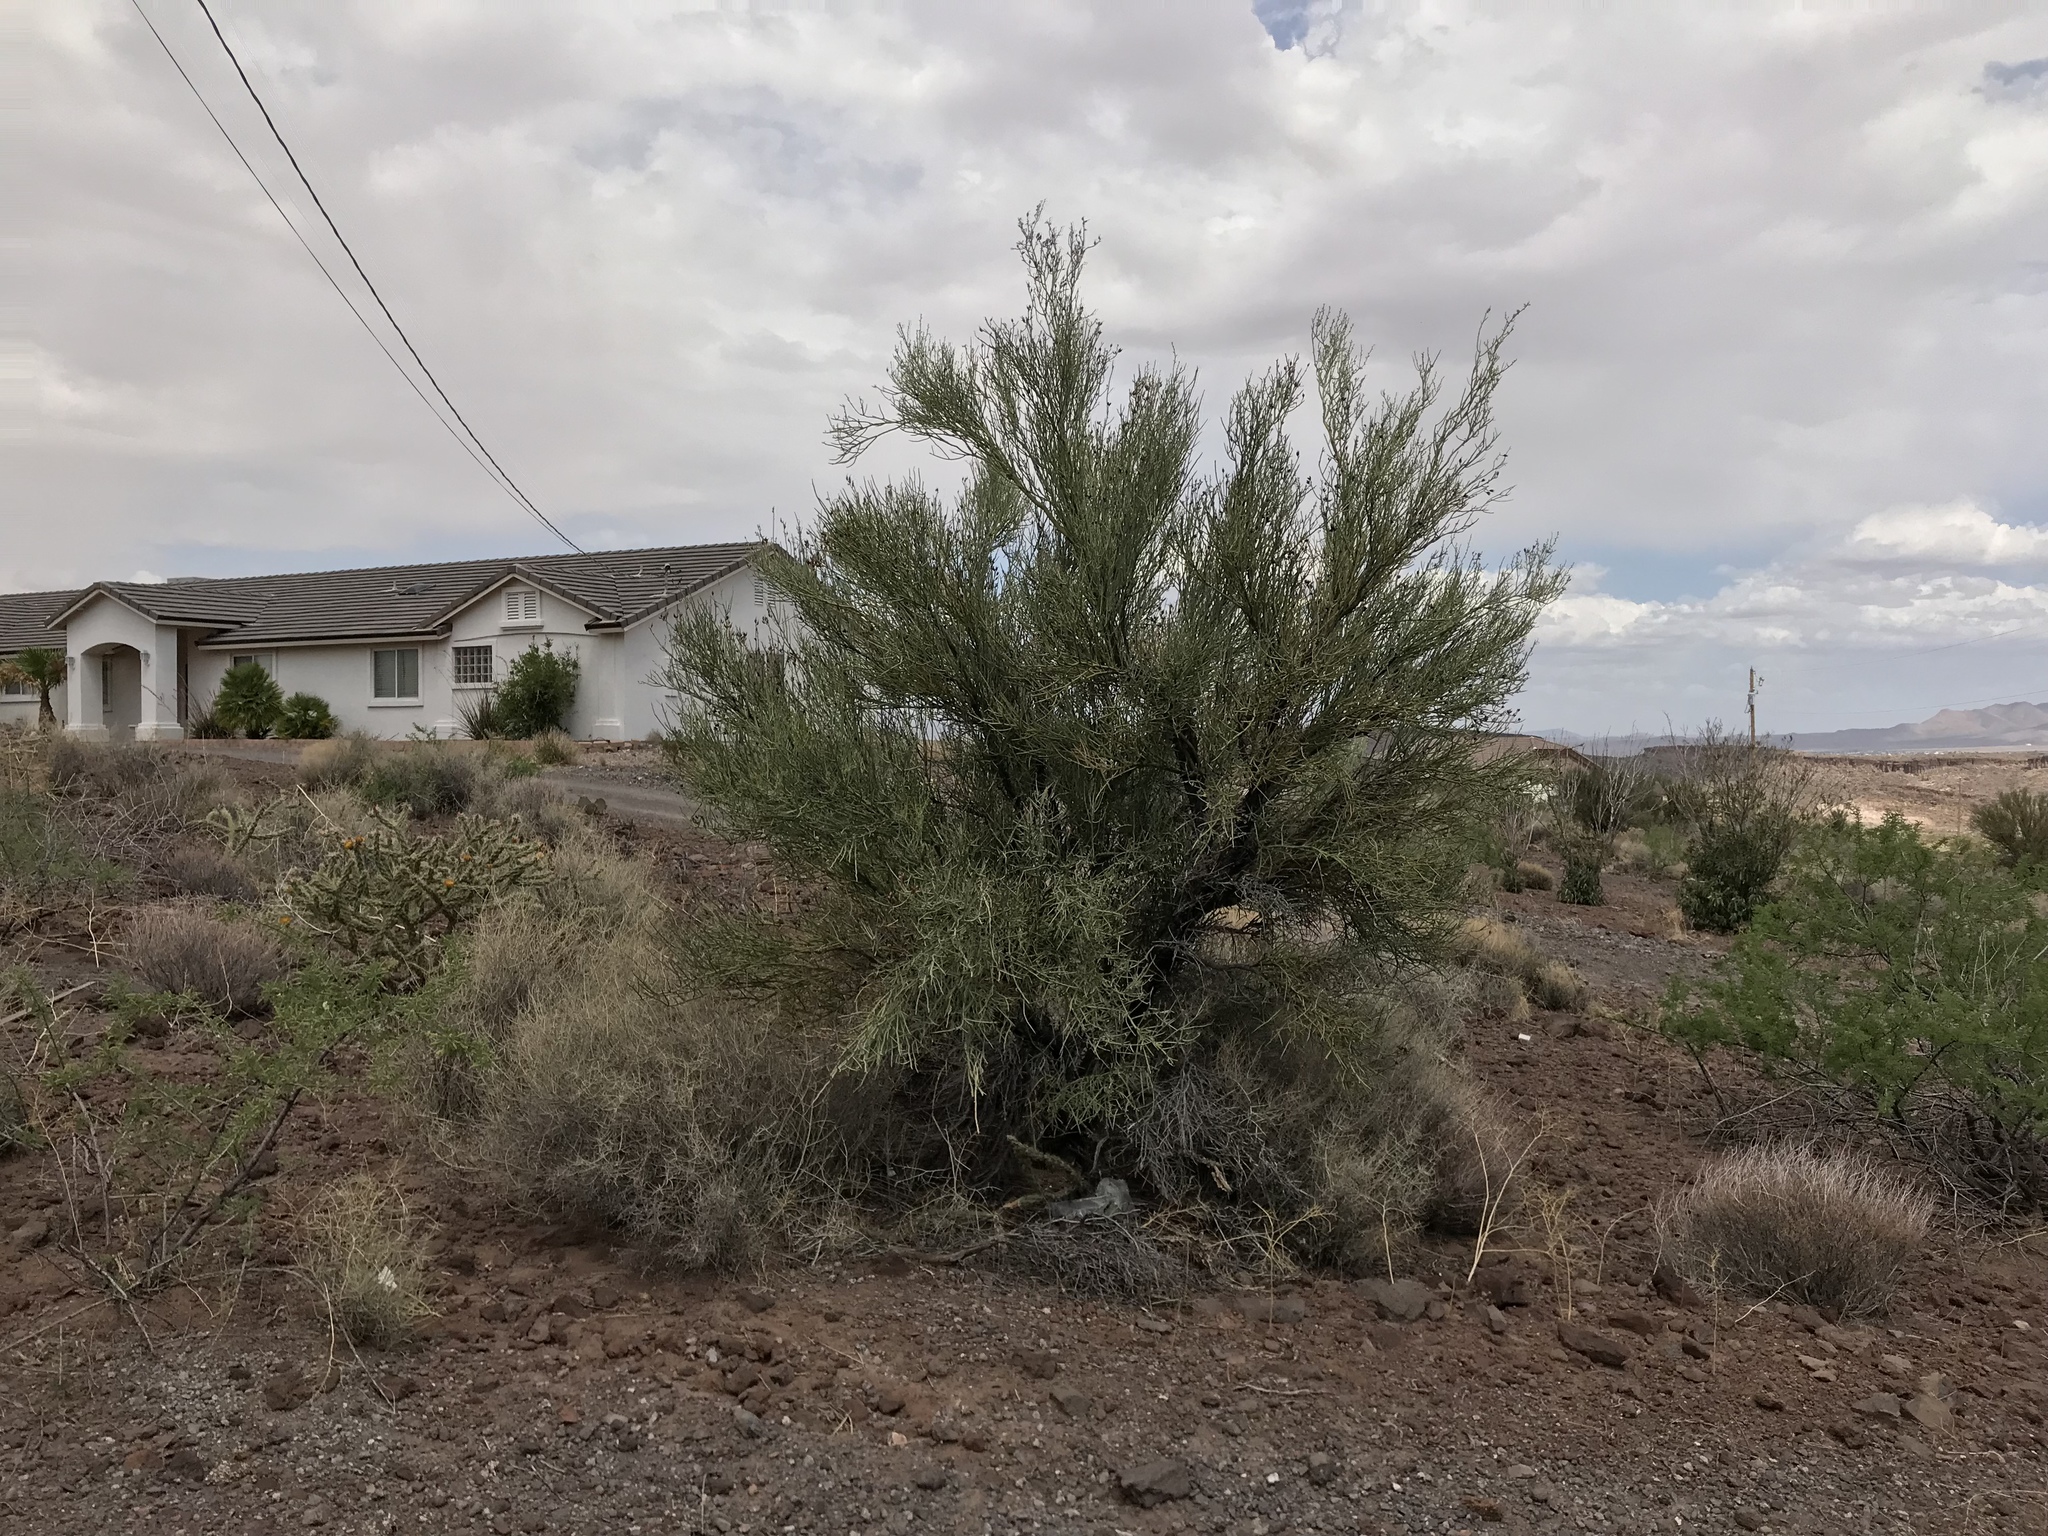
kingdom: Plantae
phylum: Tracheophyta
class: Magnoliopsida
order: Celastrales
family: Celastraceae
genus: Canotia
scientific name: Canotia holacantha
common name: Crucifixion thorns
